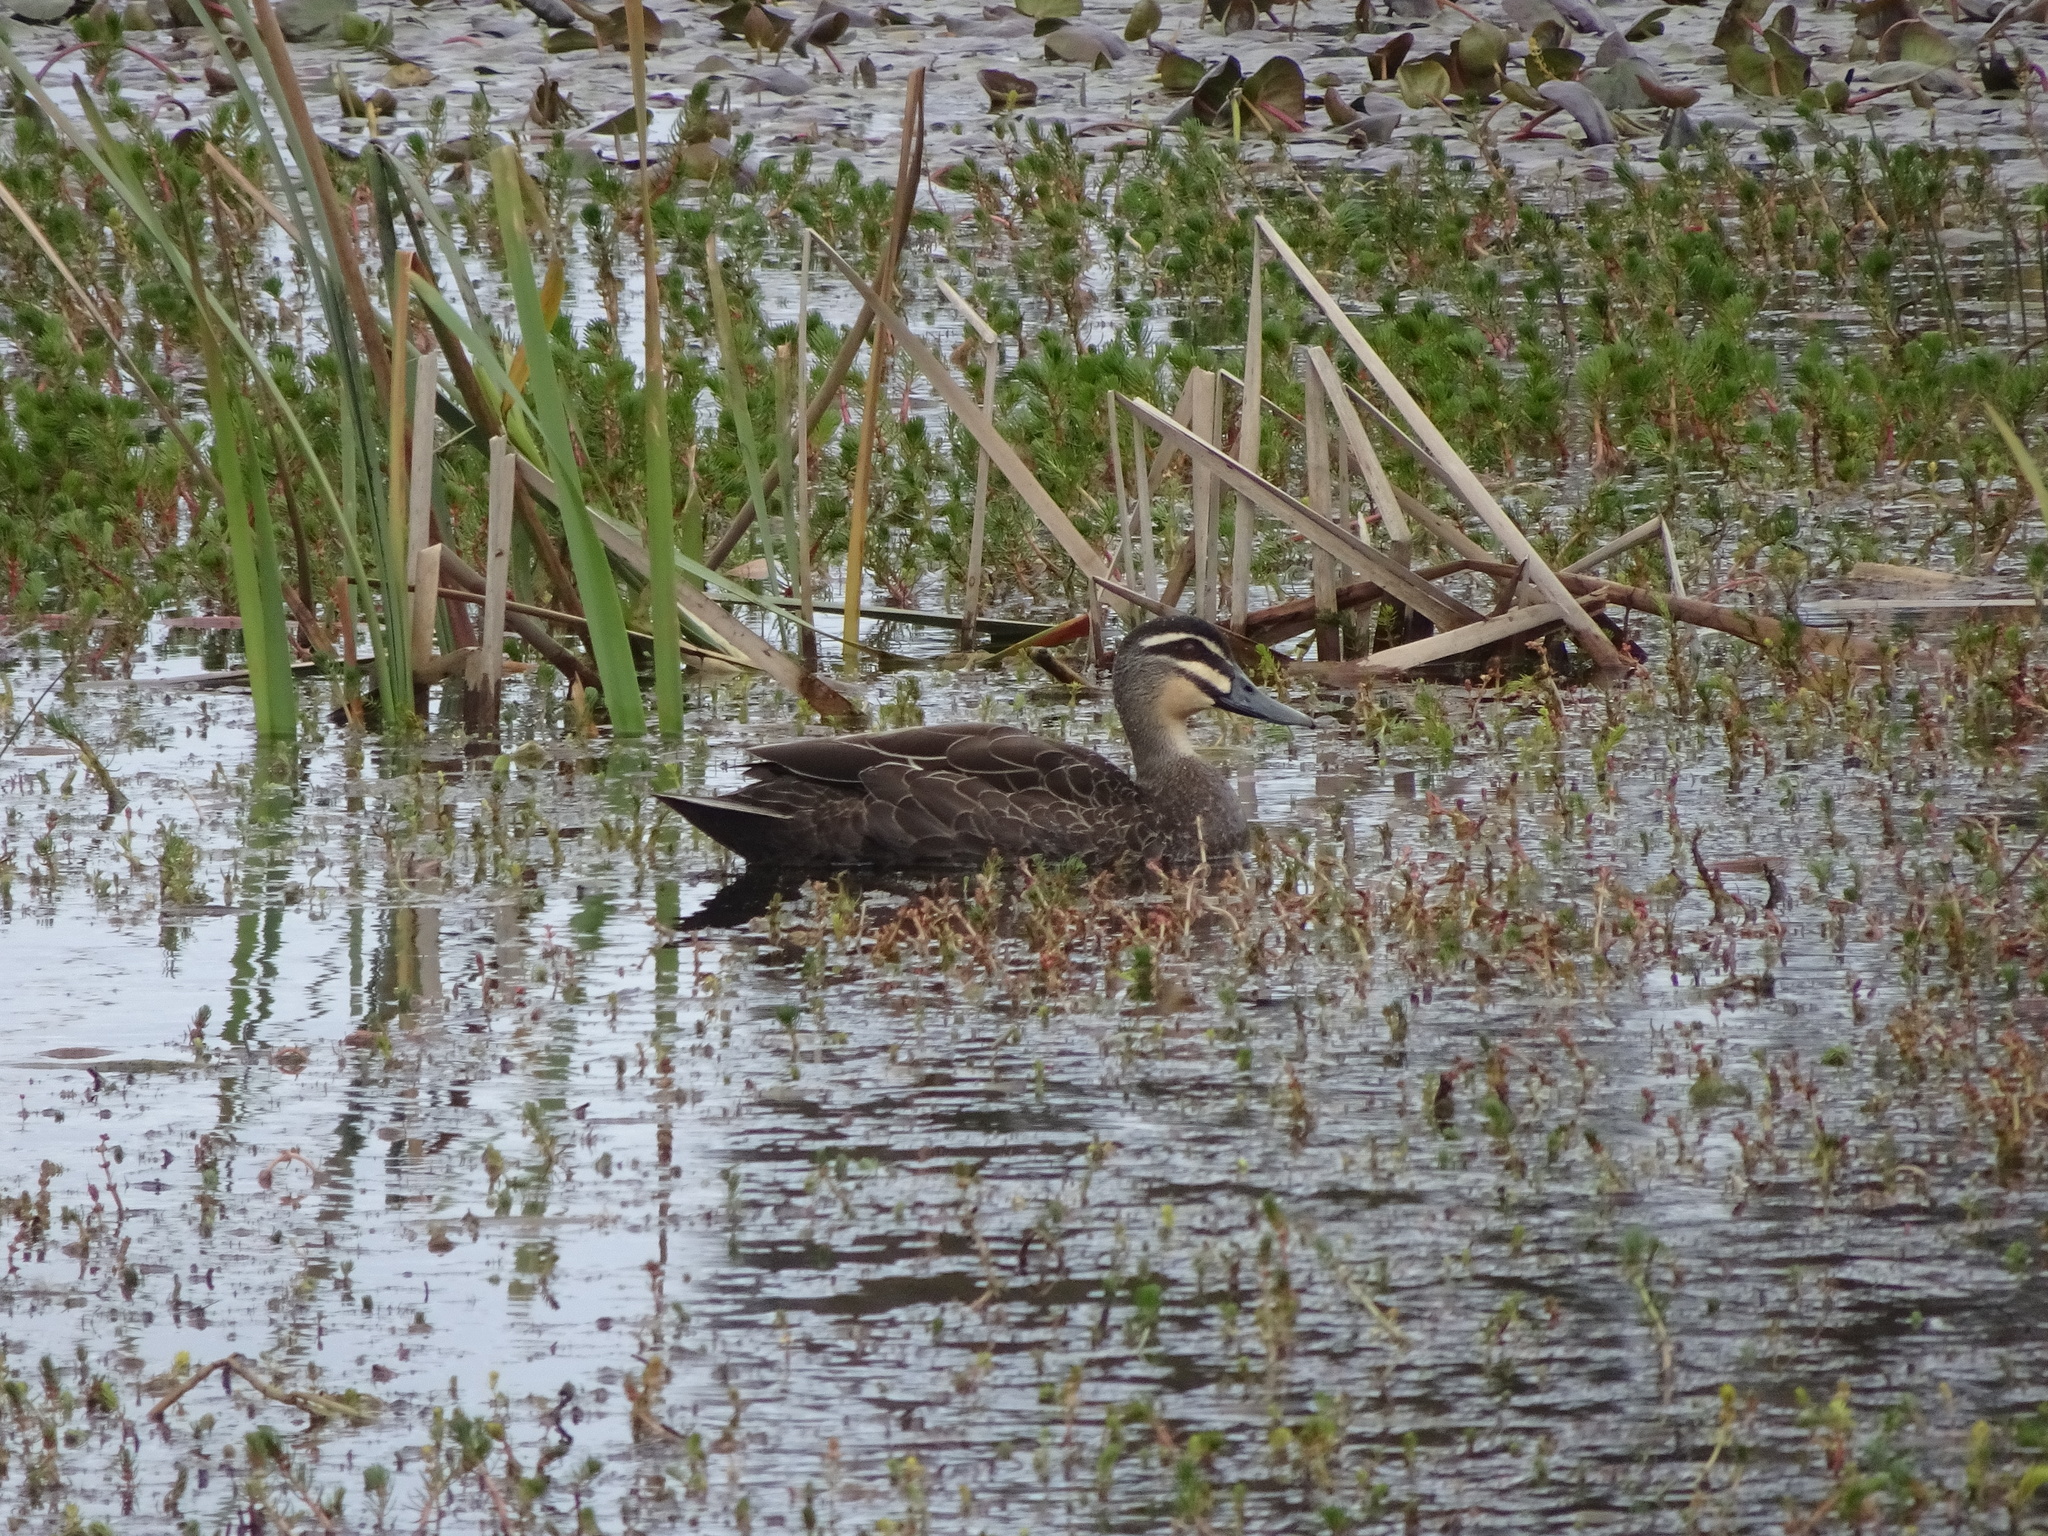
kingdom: Animalia
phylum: Chordata
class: Aves
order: Anseriformes
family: Anatidae
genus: Anas
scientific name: Anas superciliosa
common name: Pacific black duck
